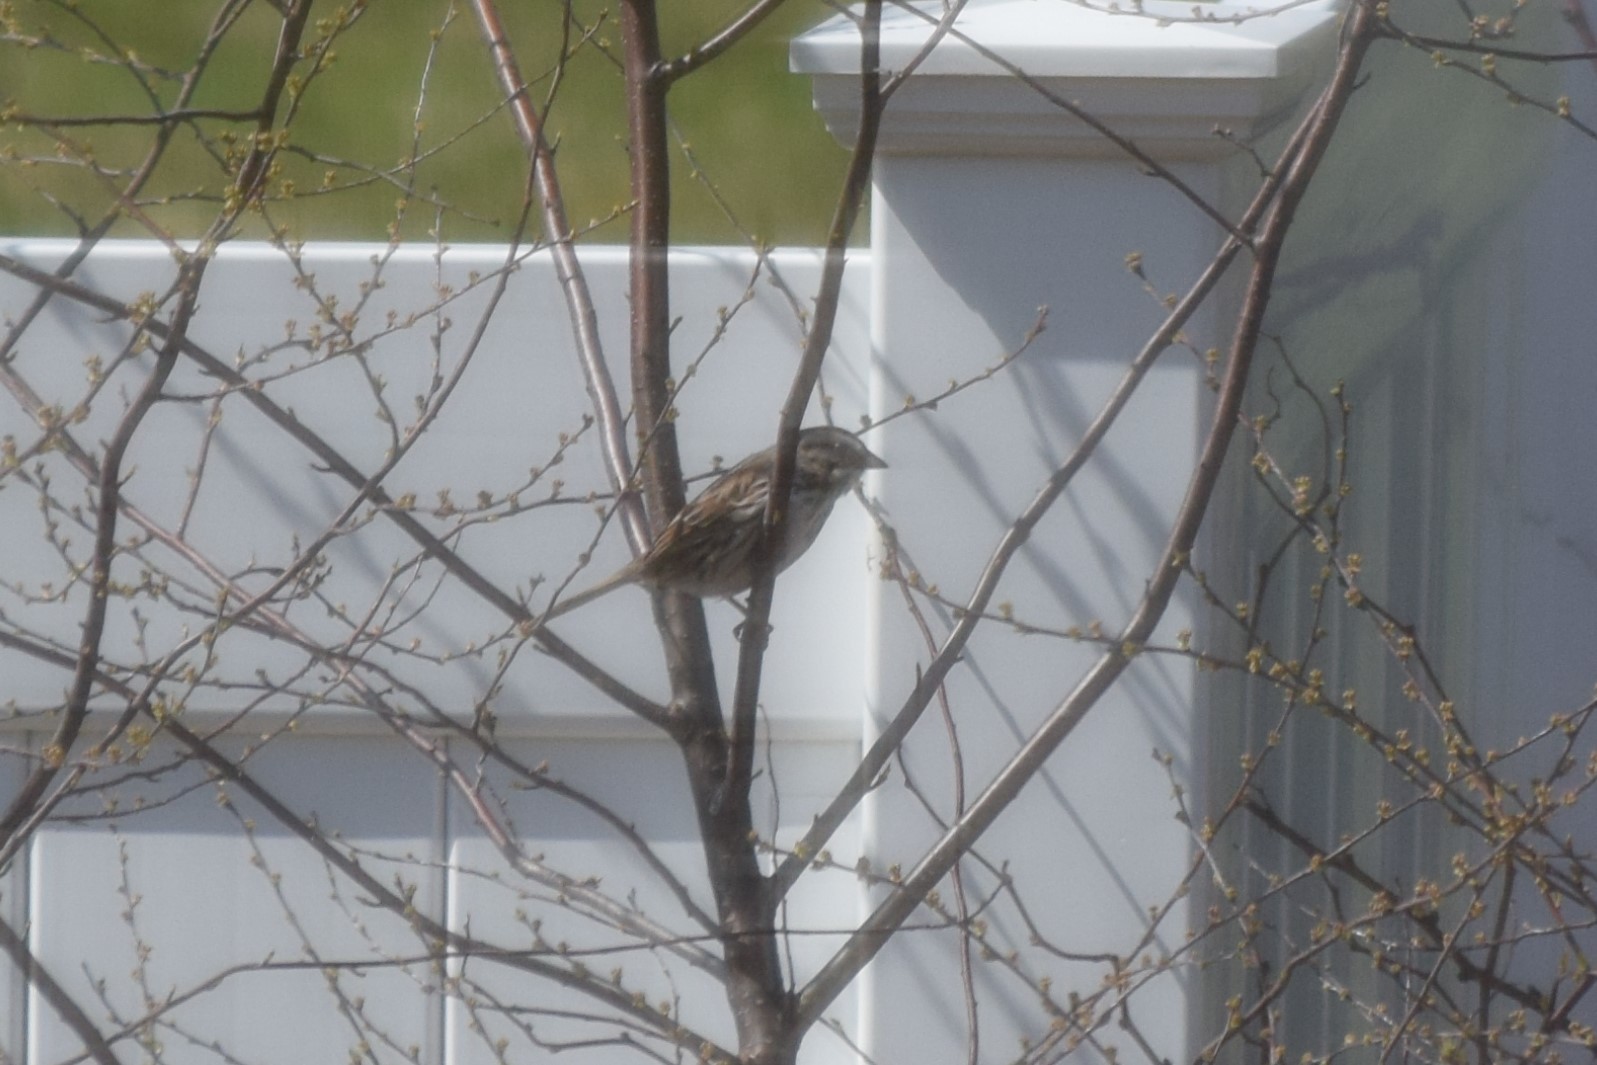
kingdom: Animalia
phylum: Chordata
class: Aves
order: Passeriformes
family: Passerellidae
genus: Melospiza
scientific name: Melospiza melodia
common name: Song sparrow
